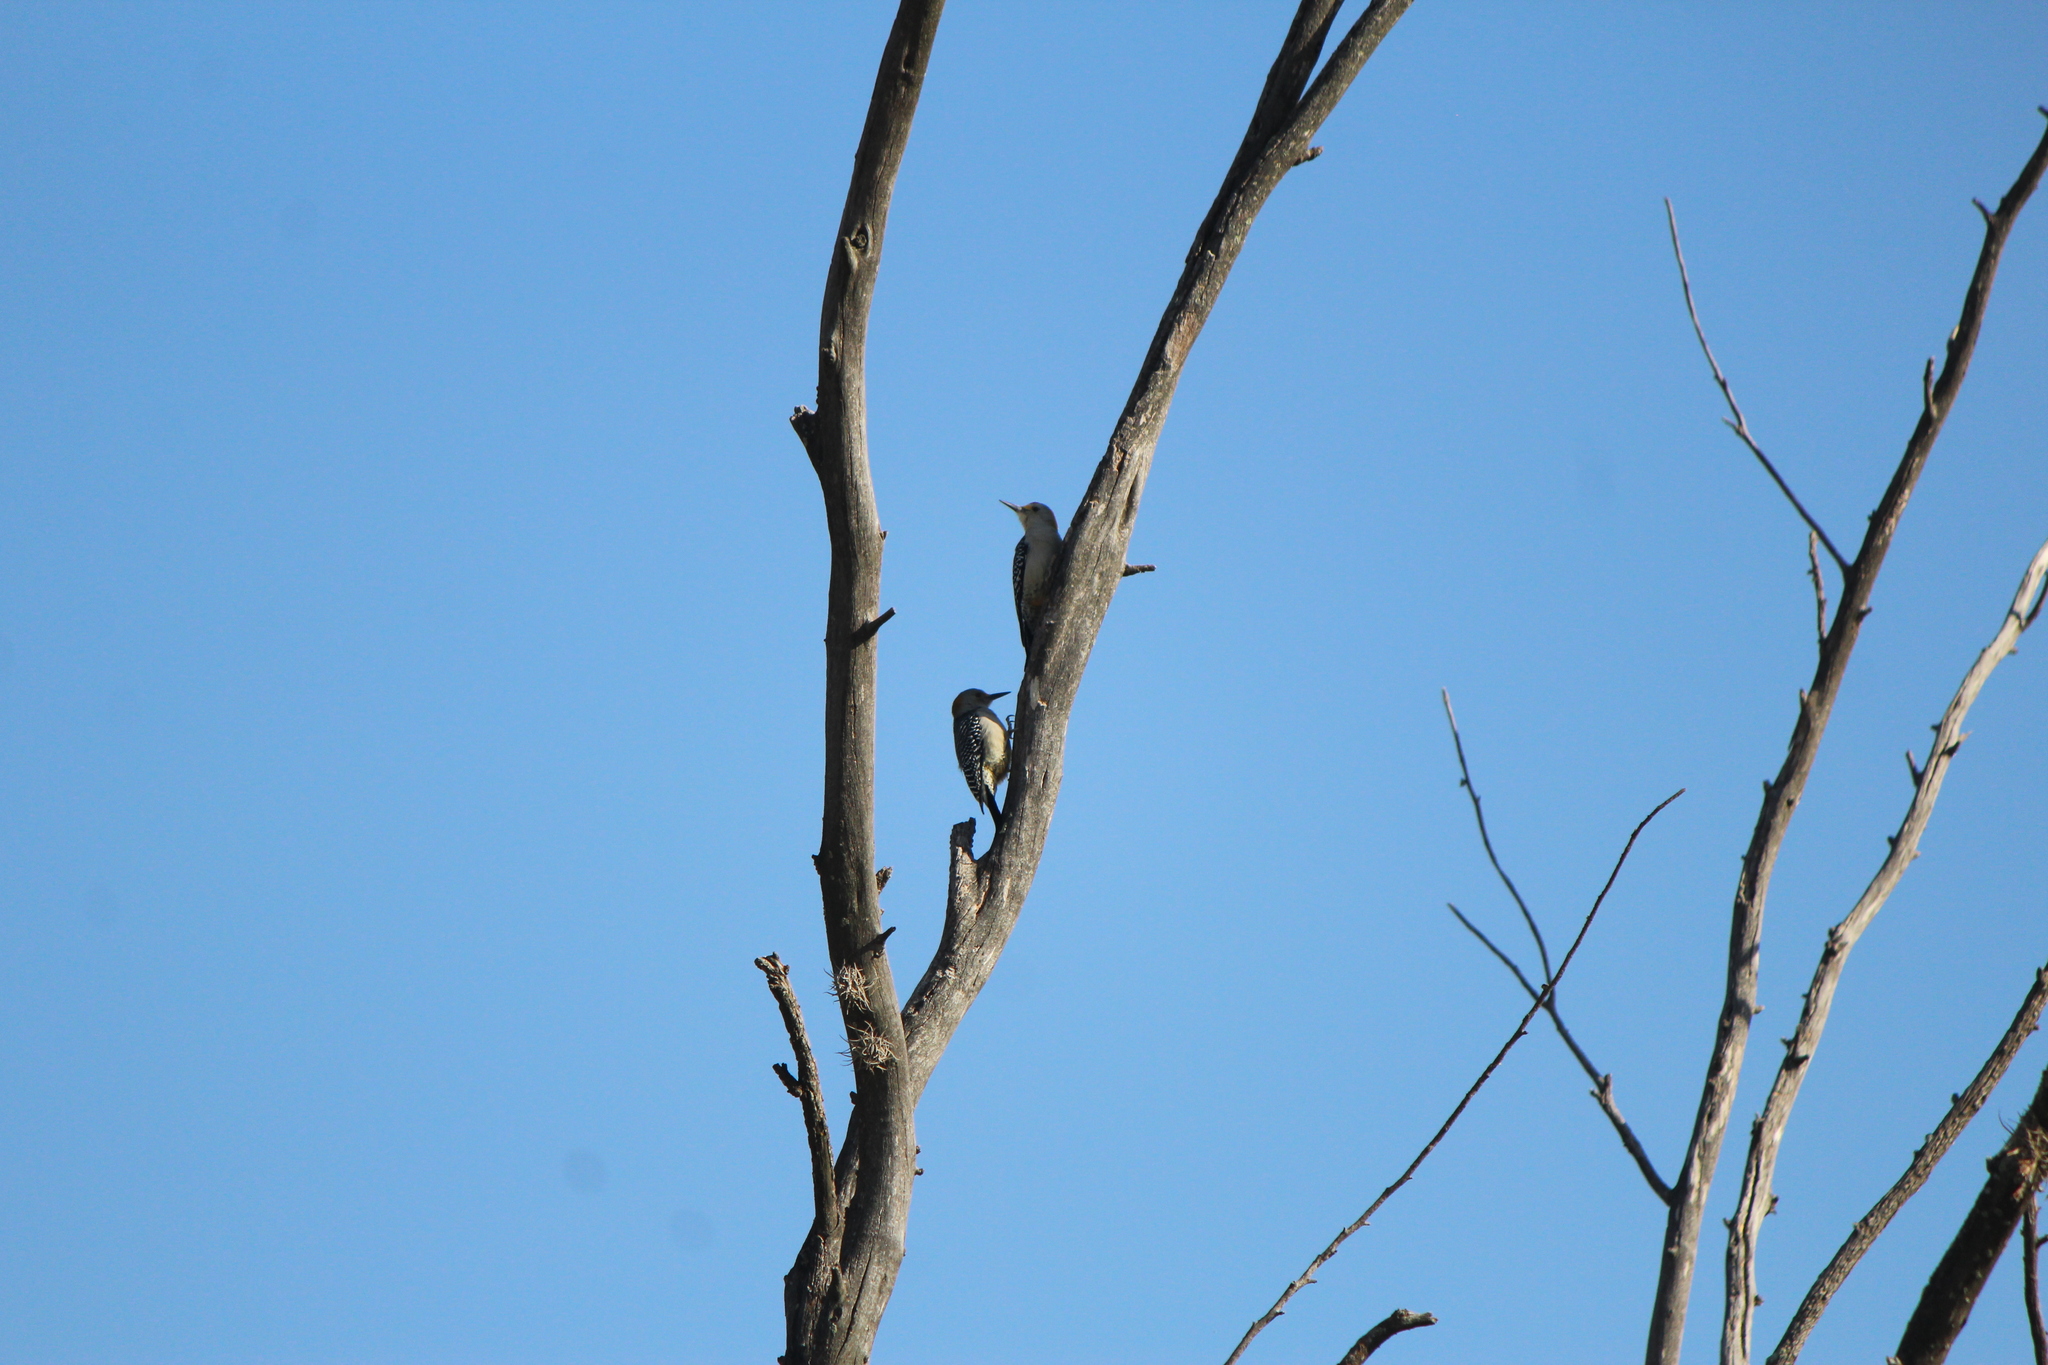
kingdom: Animalia
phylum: Chordata
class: Aves
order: Piciformes
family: Picidae
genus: Melanerpes
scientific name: Melanerpes aurifrons
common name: Golden-fronted woodpecker
